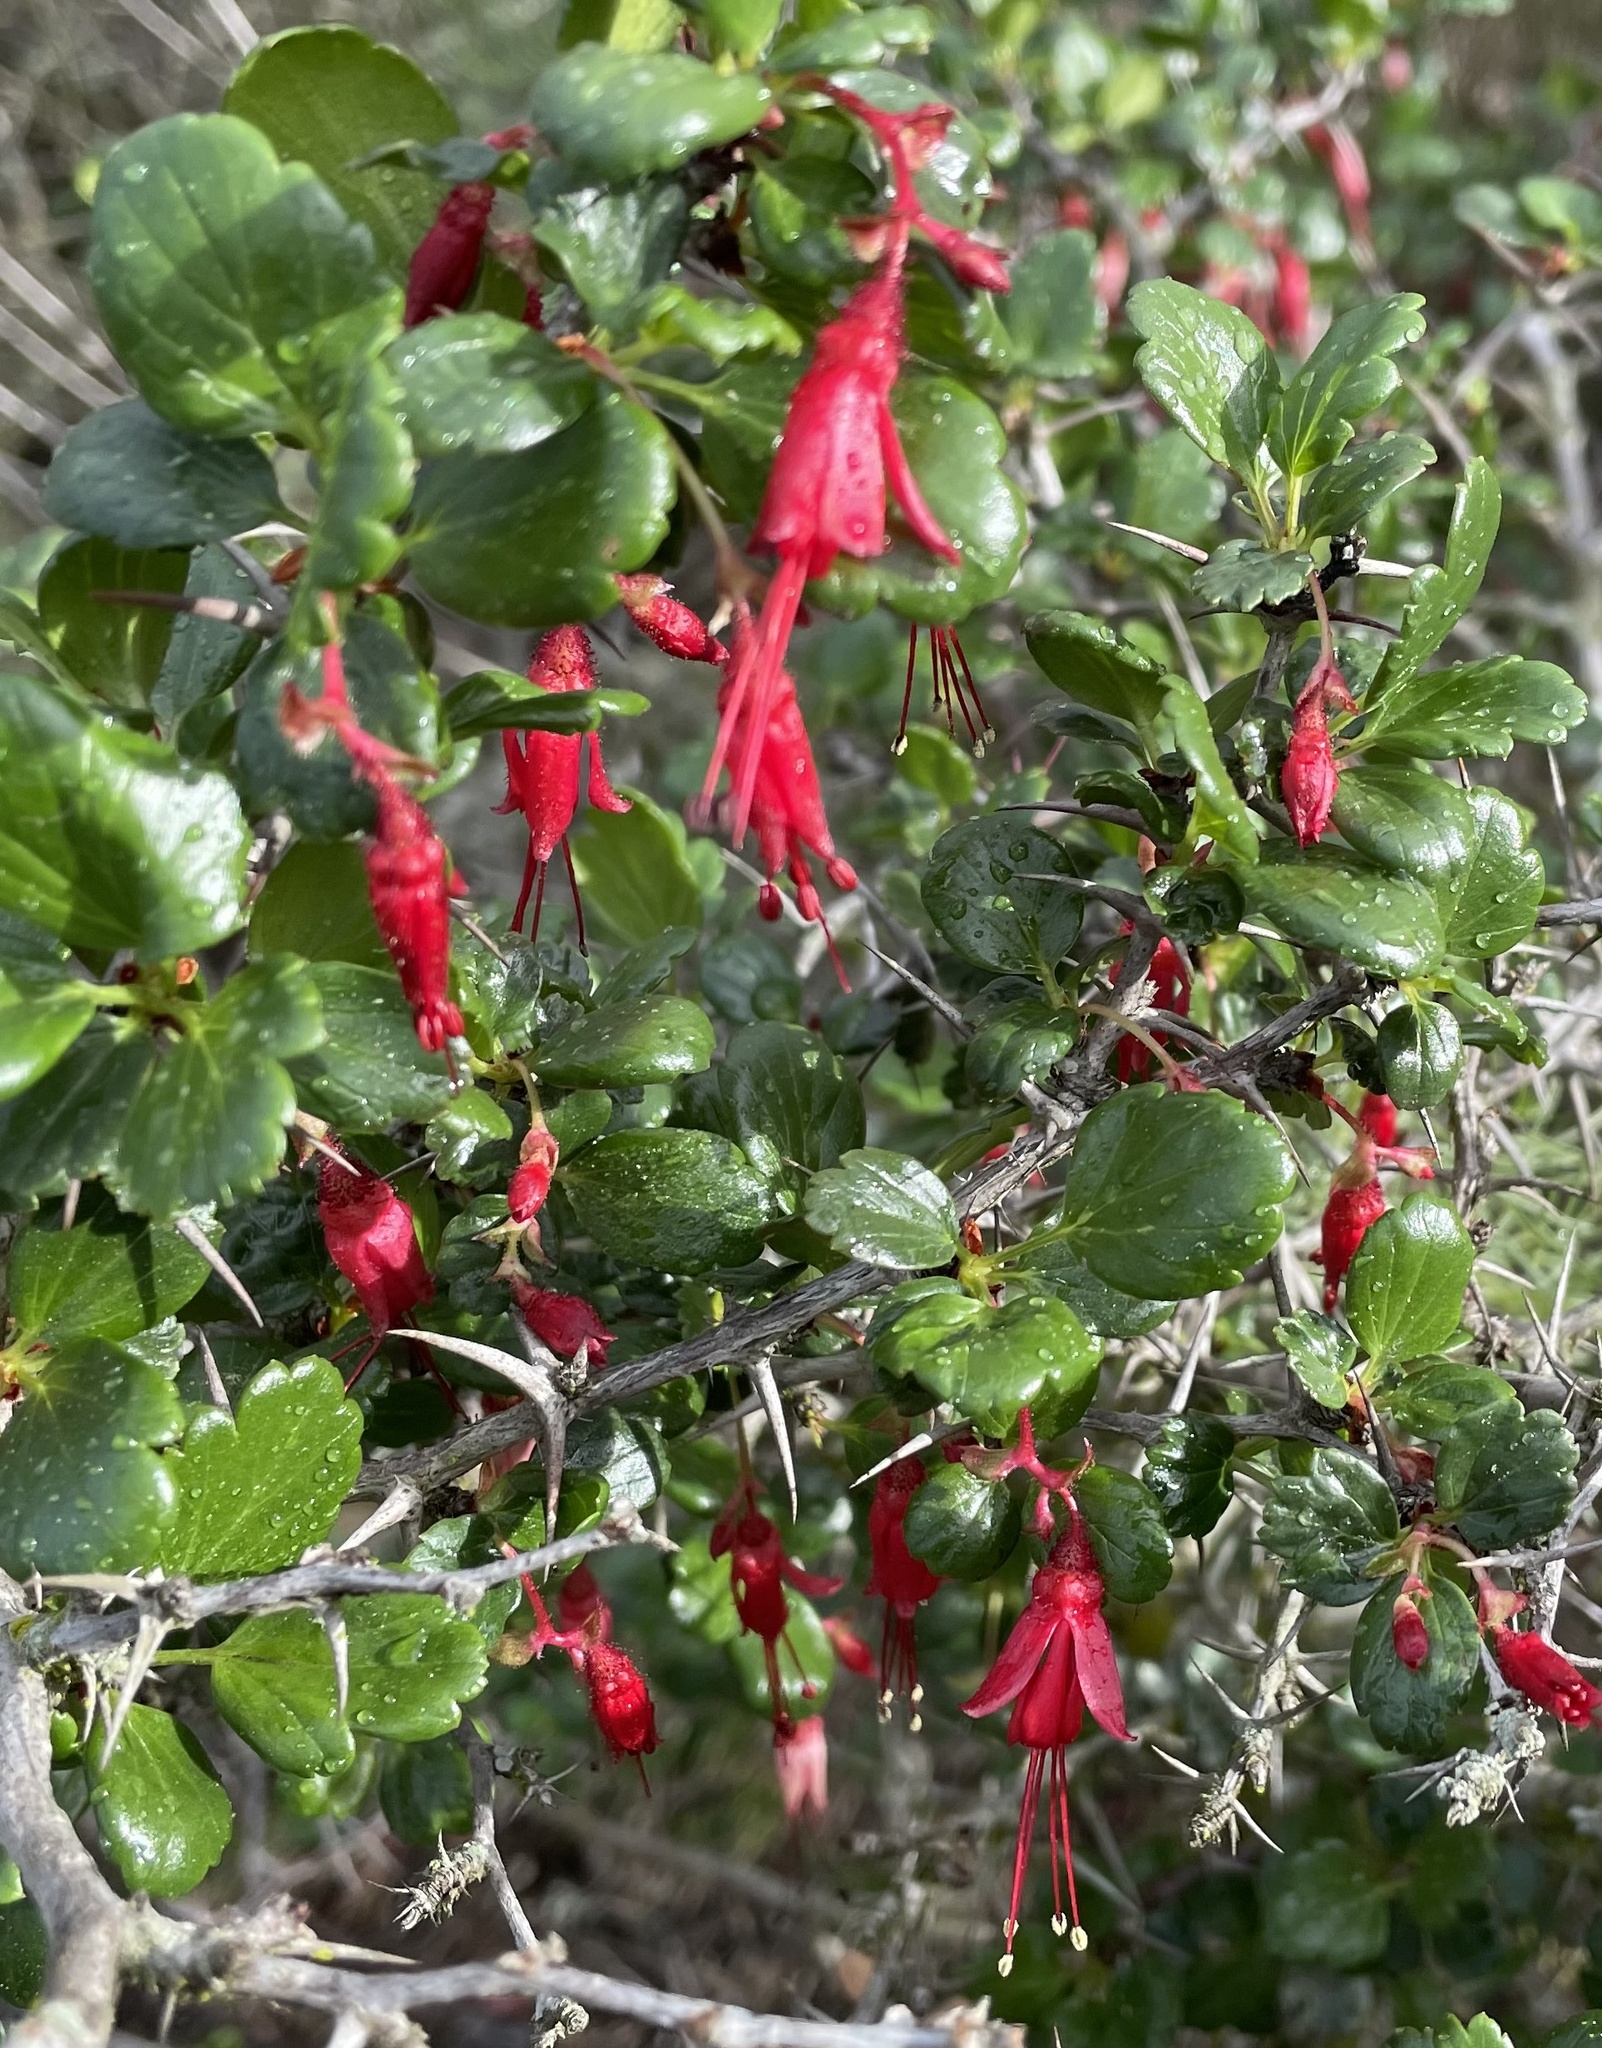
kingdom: Plantae
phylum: Tracheophyta
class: Magnoliopsida
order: Saxifragales
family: Grossulariaceae
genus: Ribes
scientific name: Ribes speciosum
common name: Fuchsia-flower gooseberry
